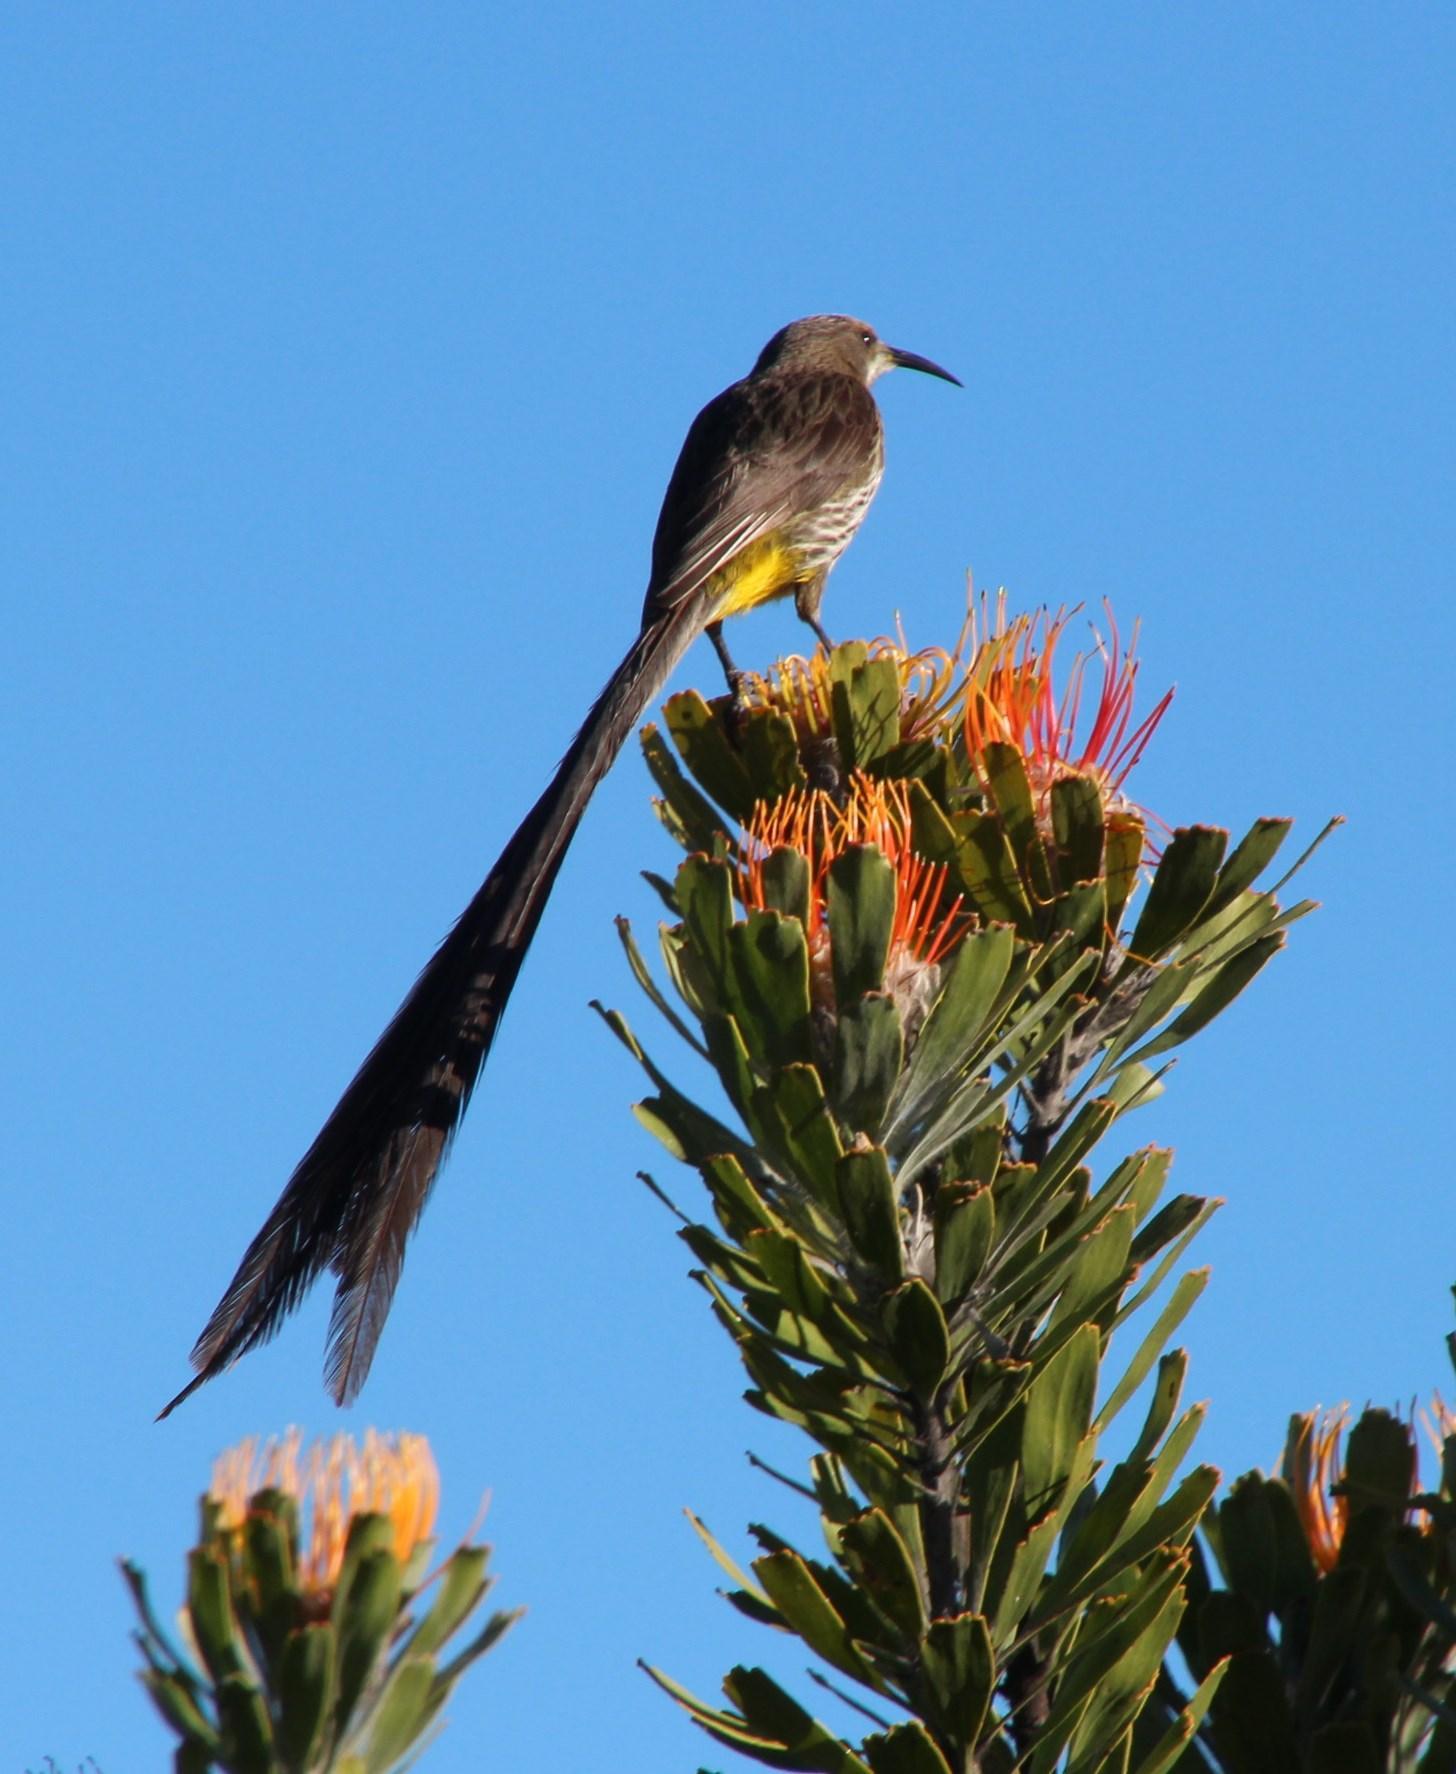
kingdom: Animalia
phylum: Chordata
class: Aves
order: Passeriformes
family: Promeropidae
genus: Promerops
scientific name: Promerops cafer
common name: Cape sugarbird
